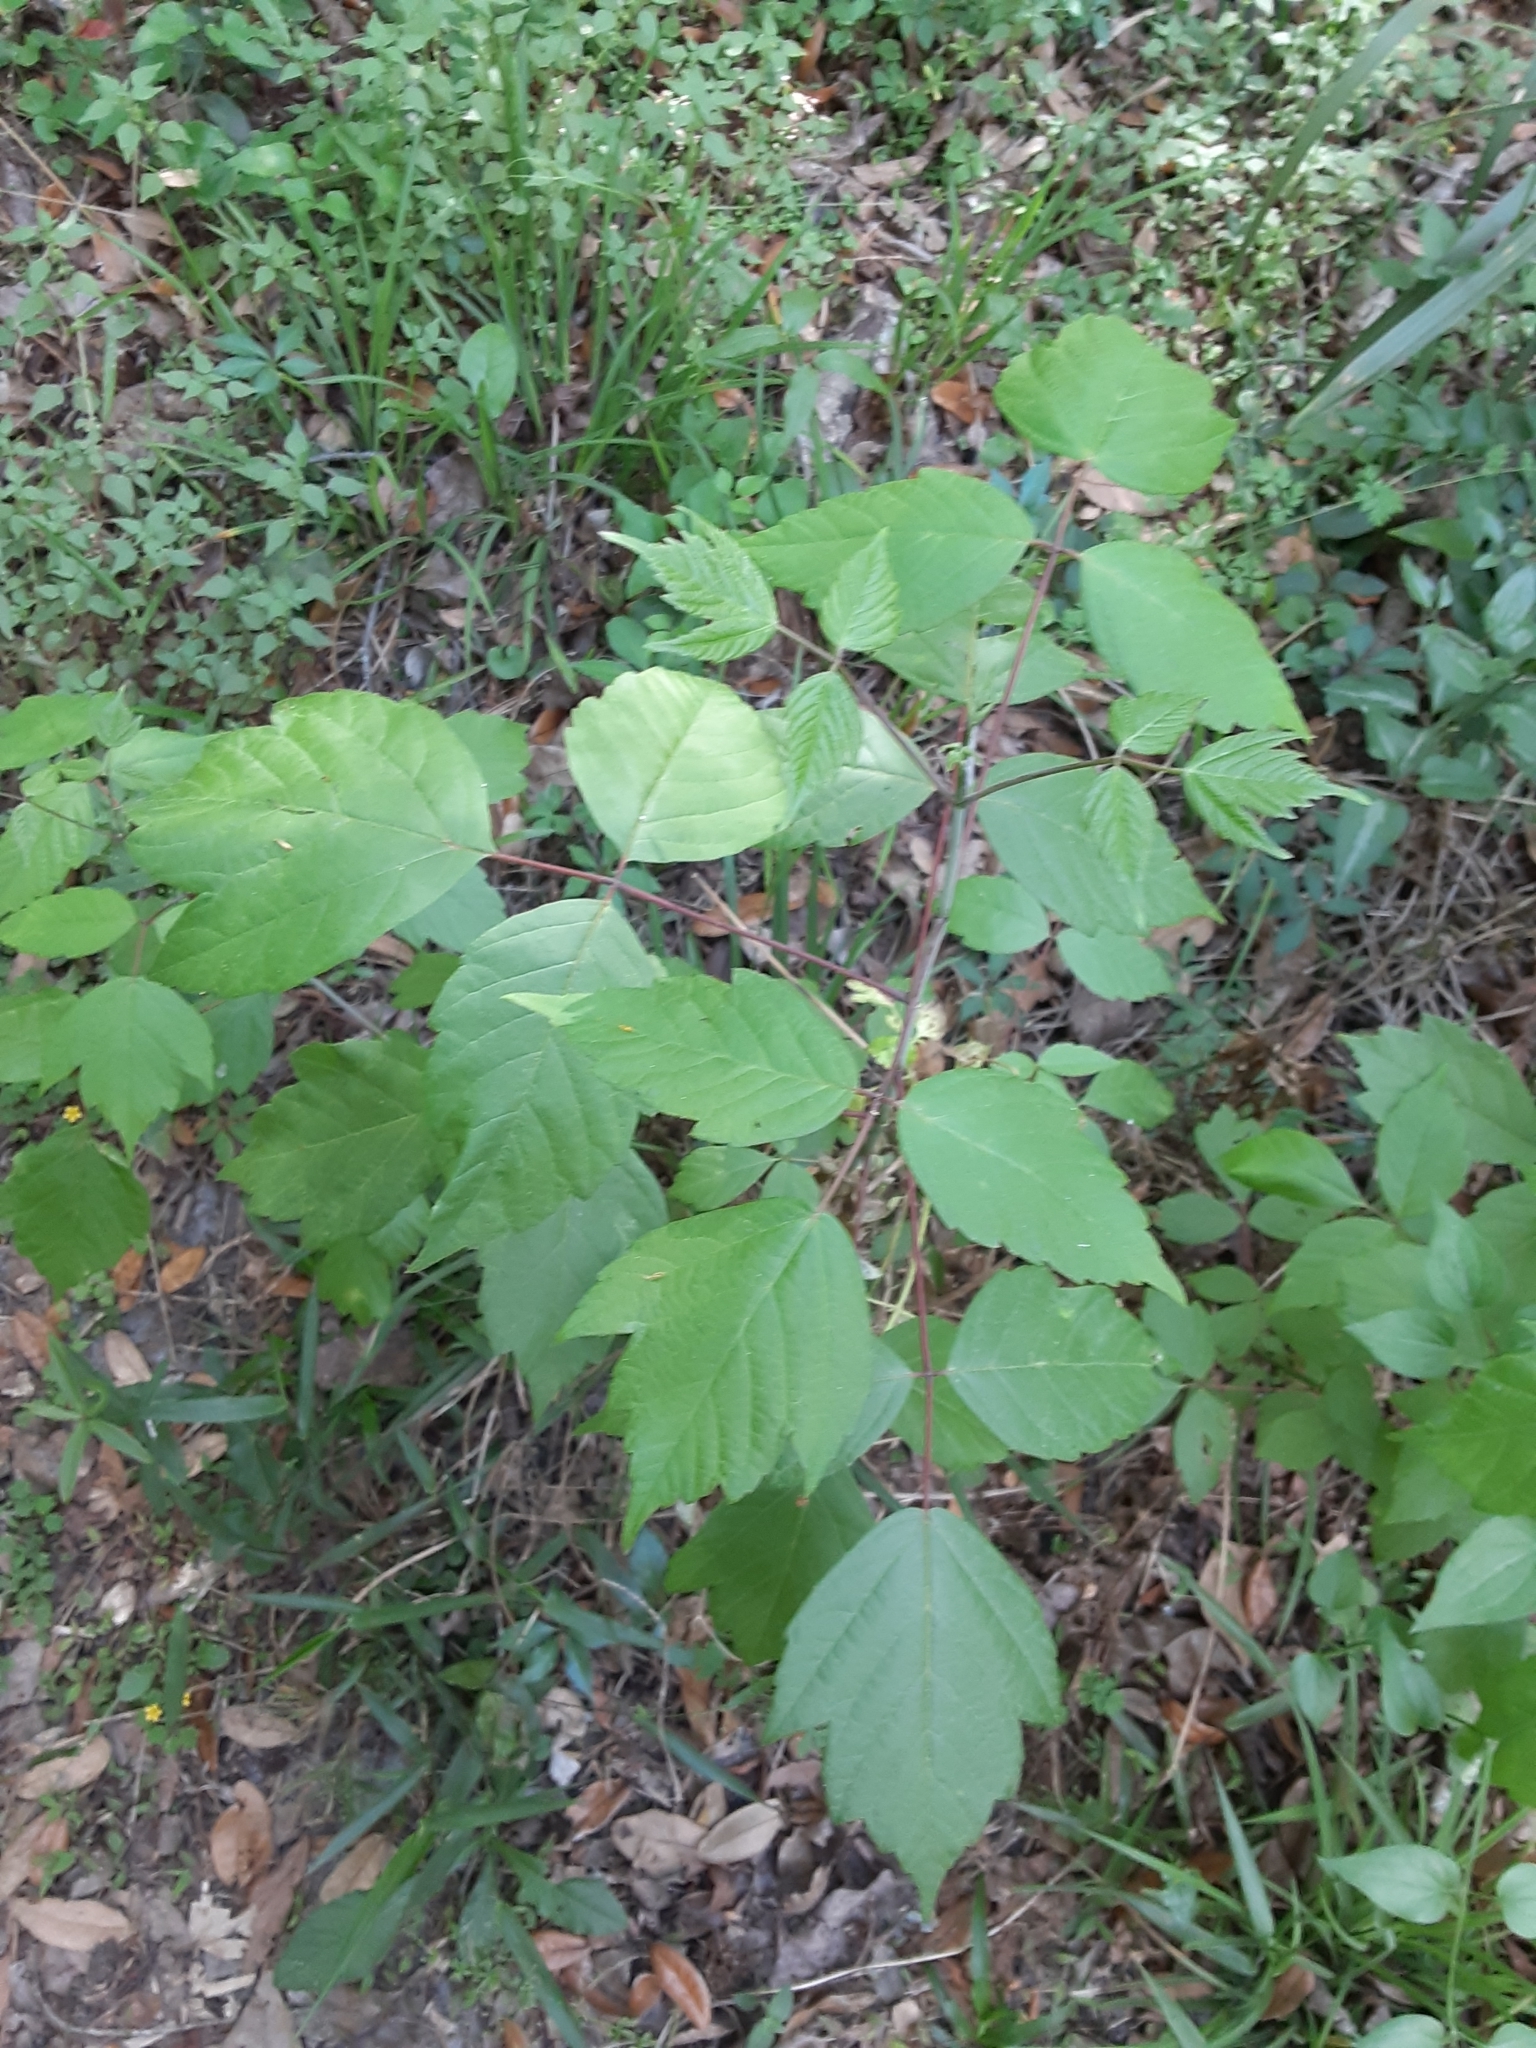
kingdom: Plantae
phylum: Tracheophyta
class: Magnoliopsida
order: Sapindales
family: Sapindaceae
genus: Acer
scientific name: Acer negundo
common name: Ashleaf maple
